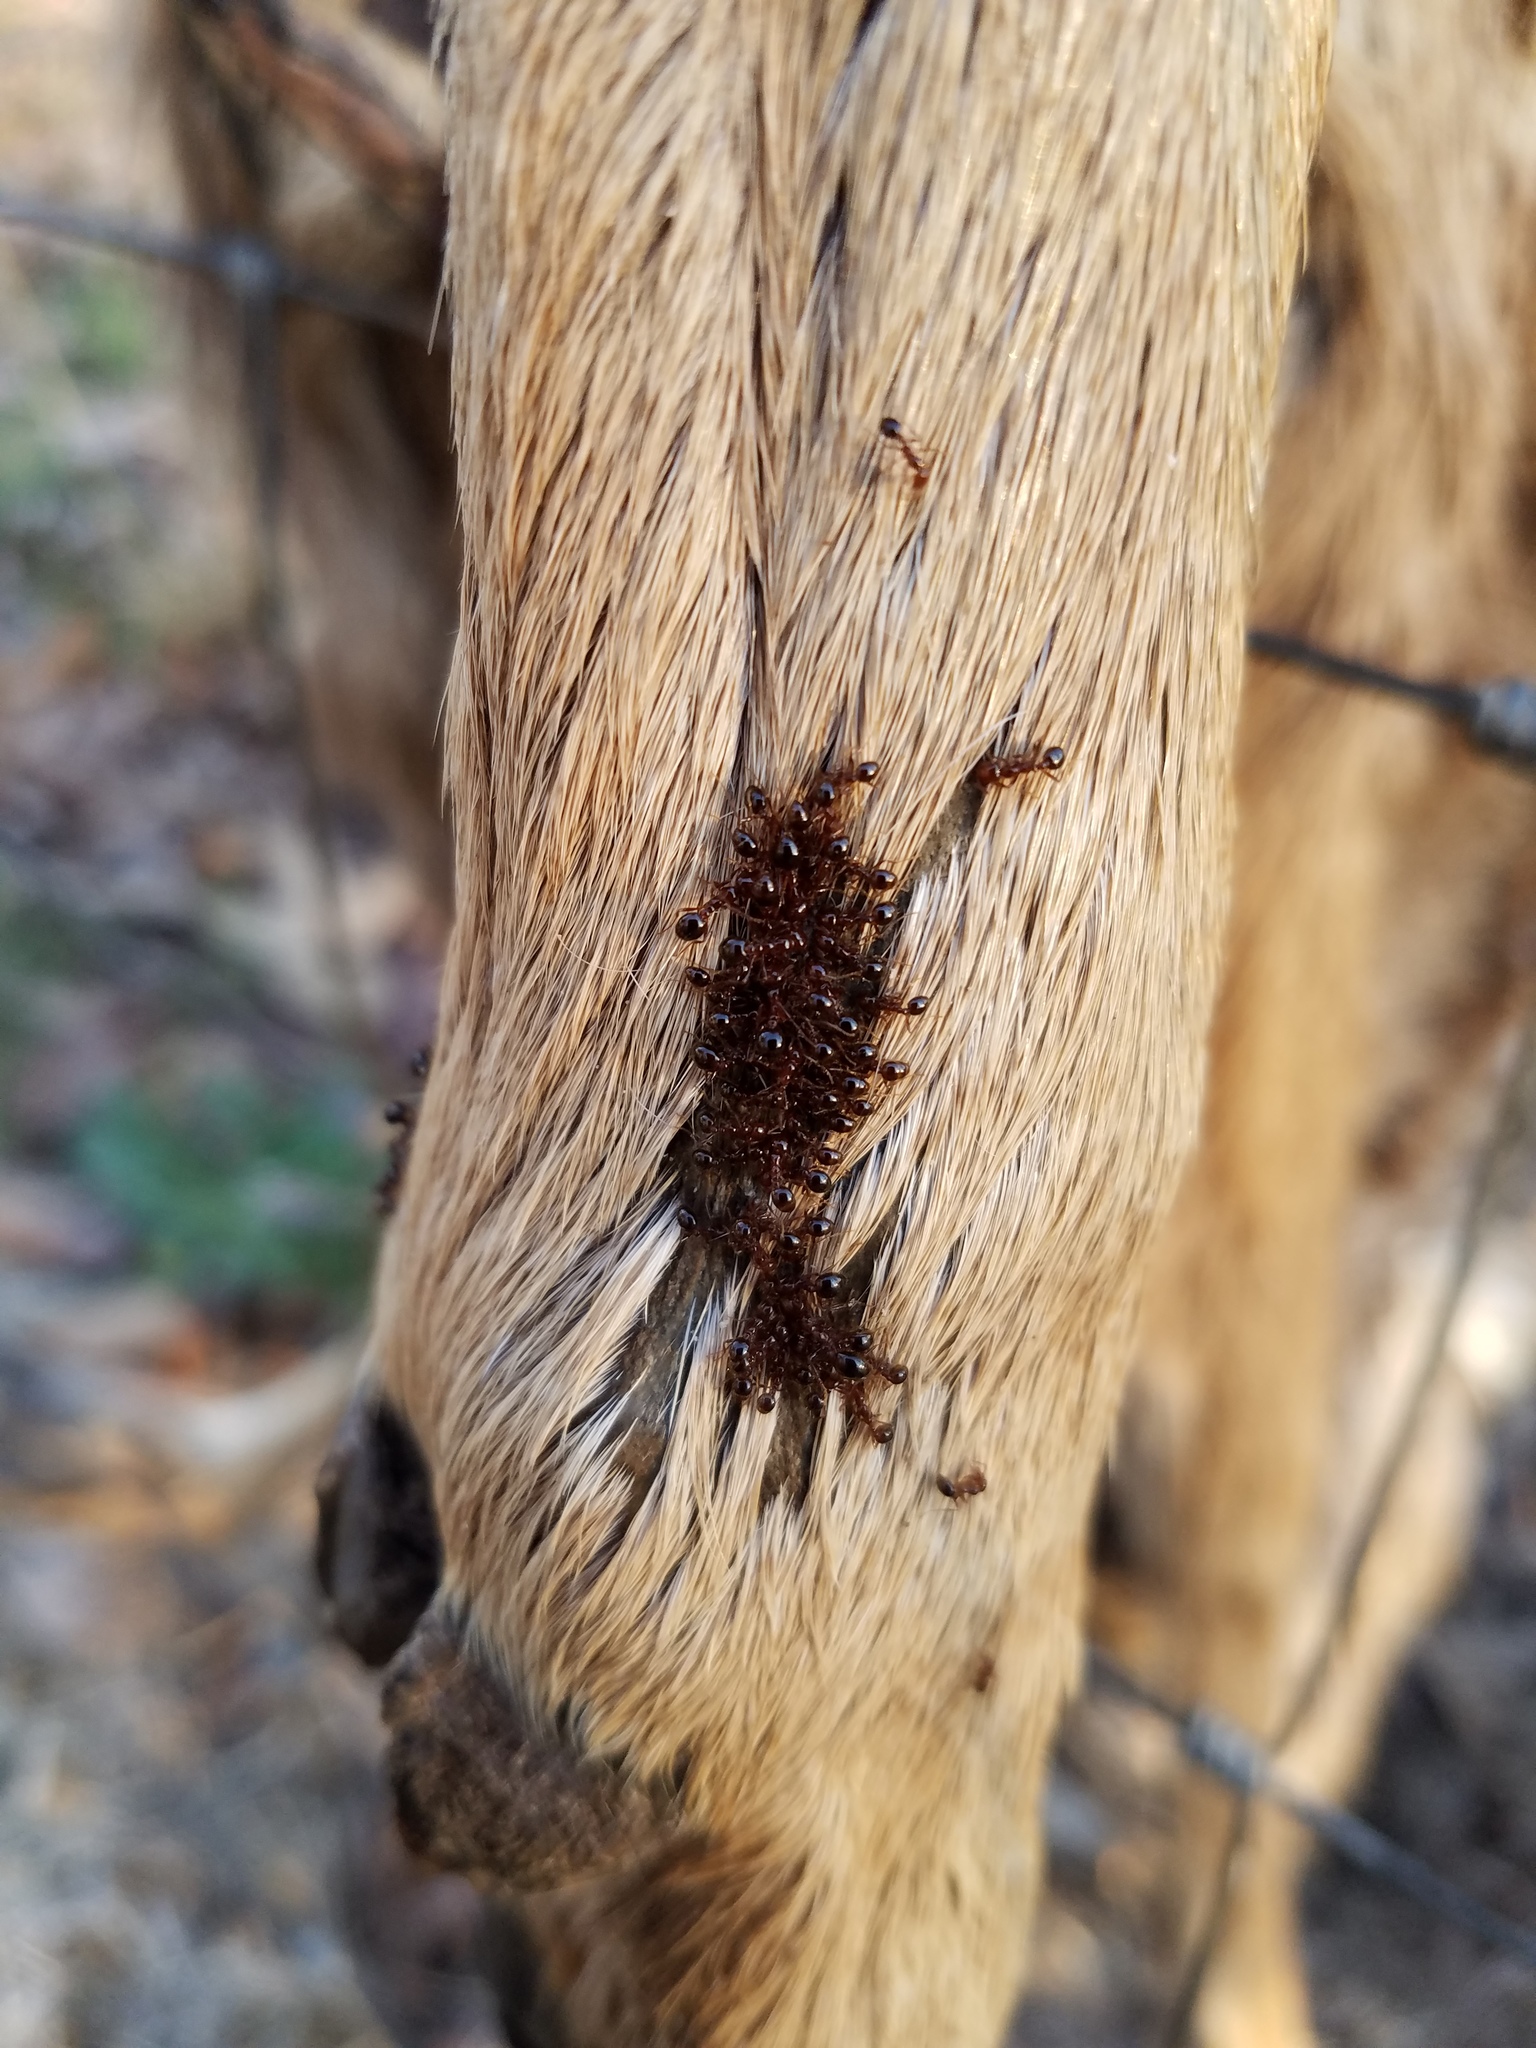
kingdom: Animalia
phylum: Arthropoda
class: Insecta
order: Hymenoptera
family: Formicidae
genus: Solenopsis
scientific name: Solenopsis invicta
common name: Red imported fire ant
